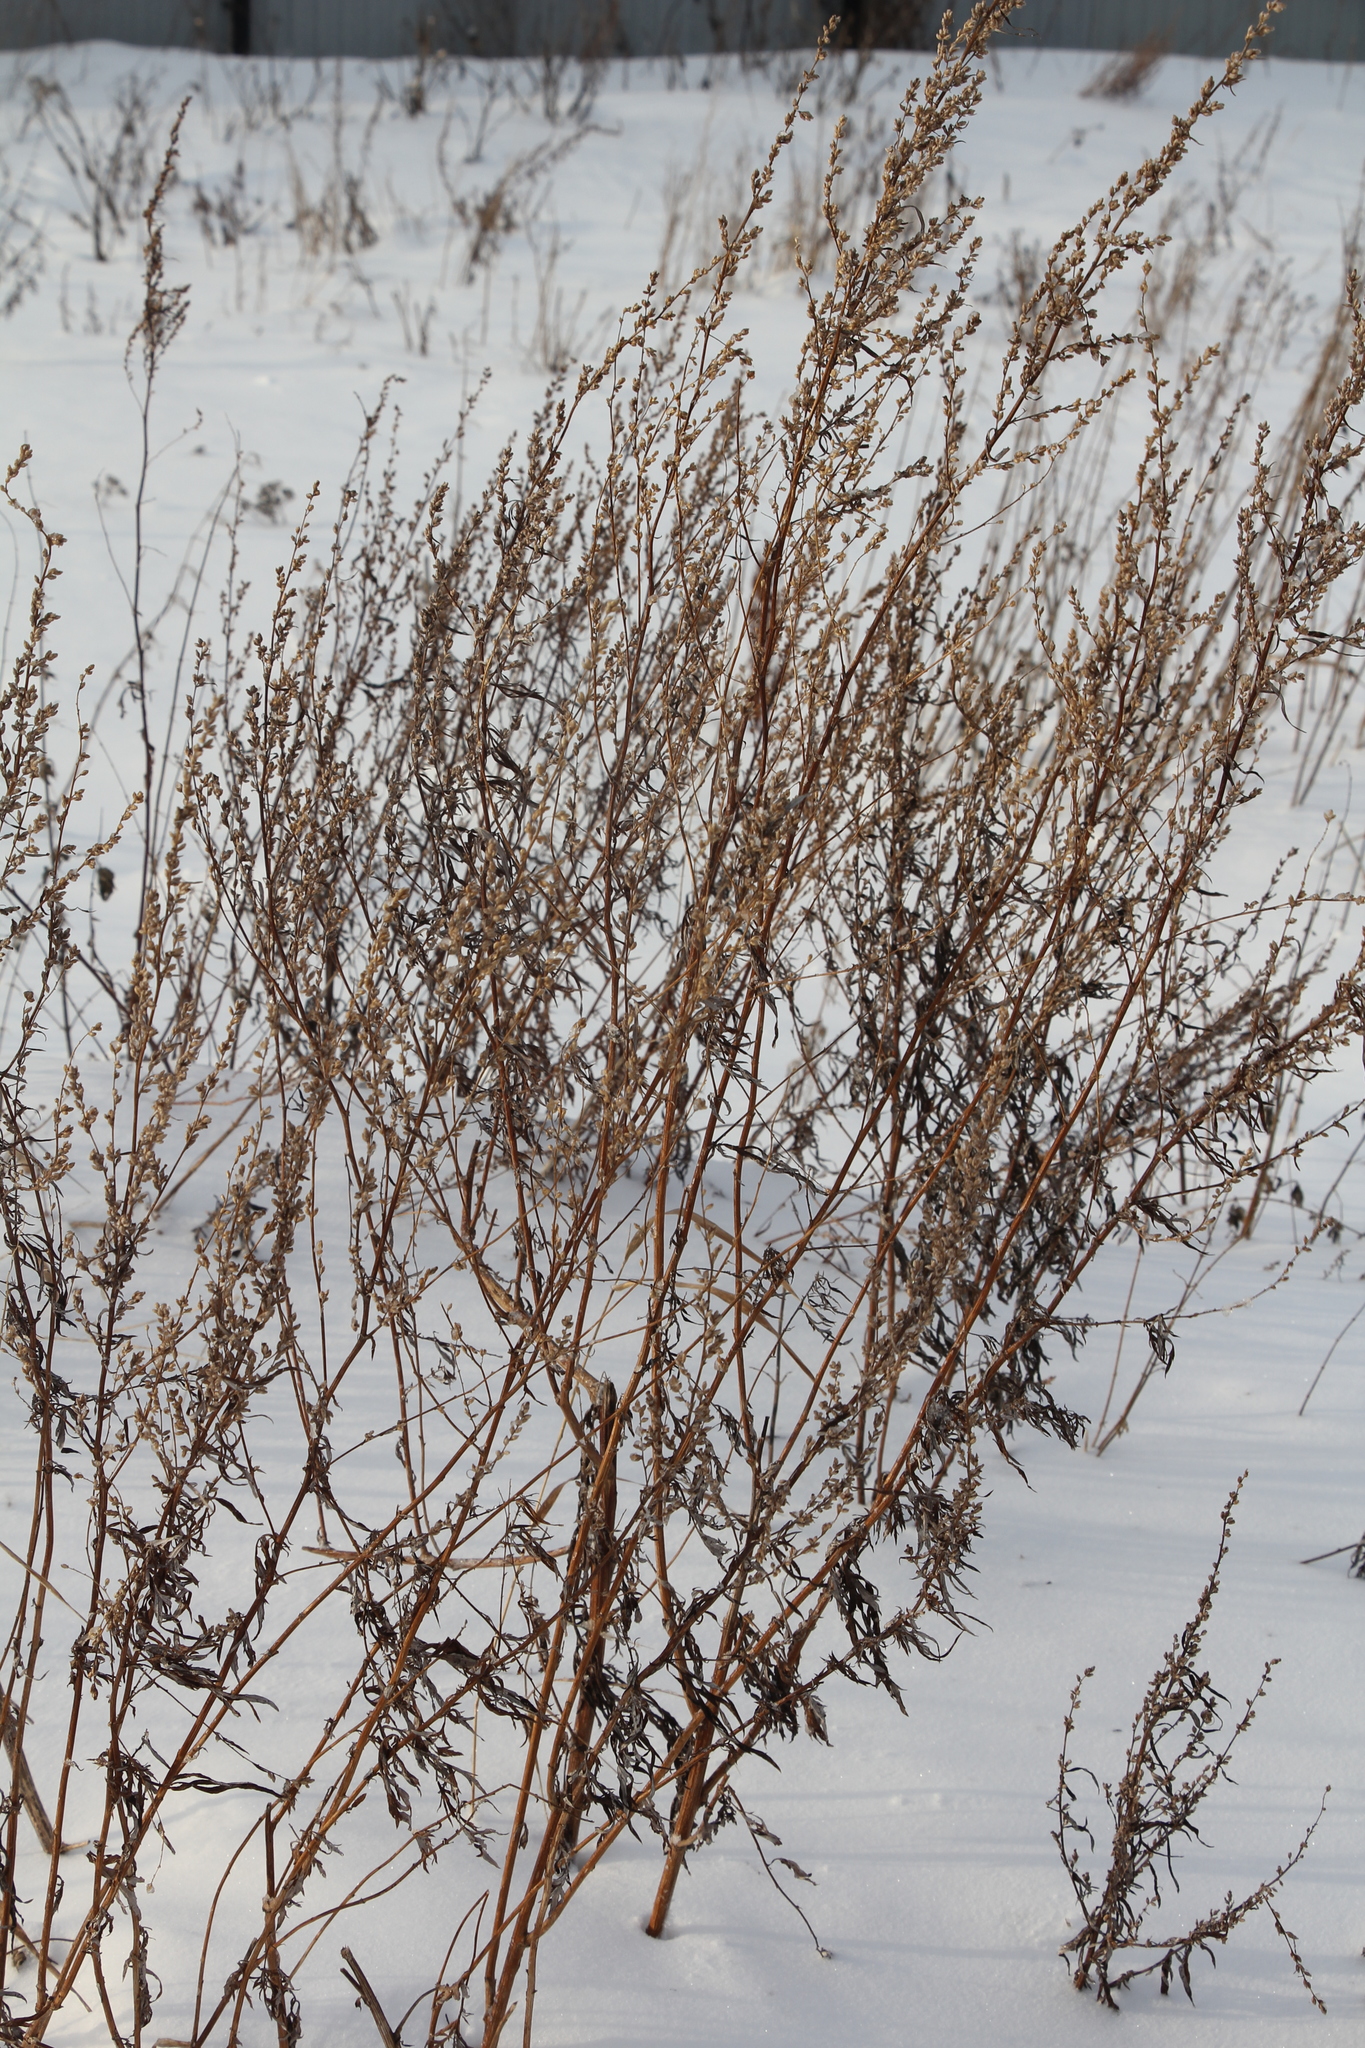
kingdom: Plantae
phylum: Tracheophyta
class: Magnoliopsida
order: Asterales
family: Asteraceae
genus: Artemisia
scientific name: Artemisia vulgaris
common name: Mugwort
